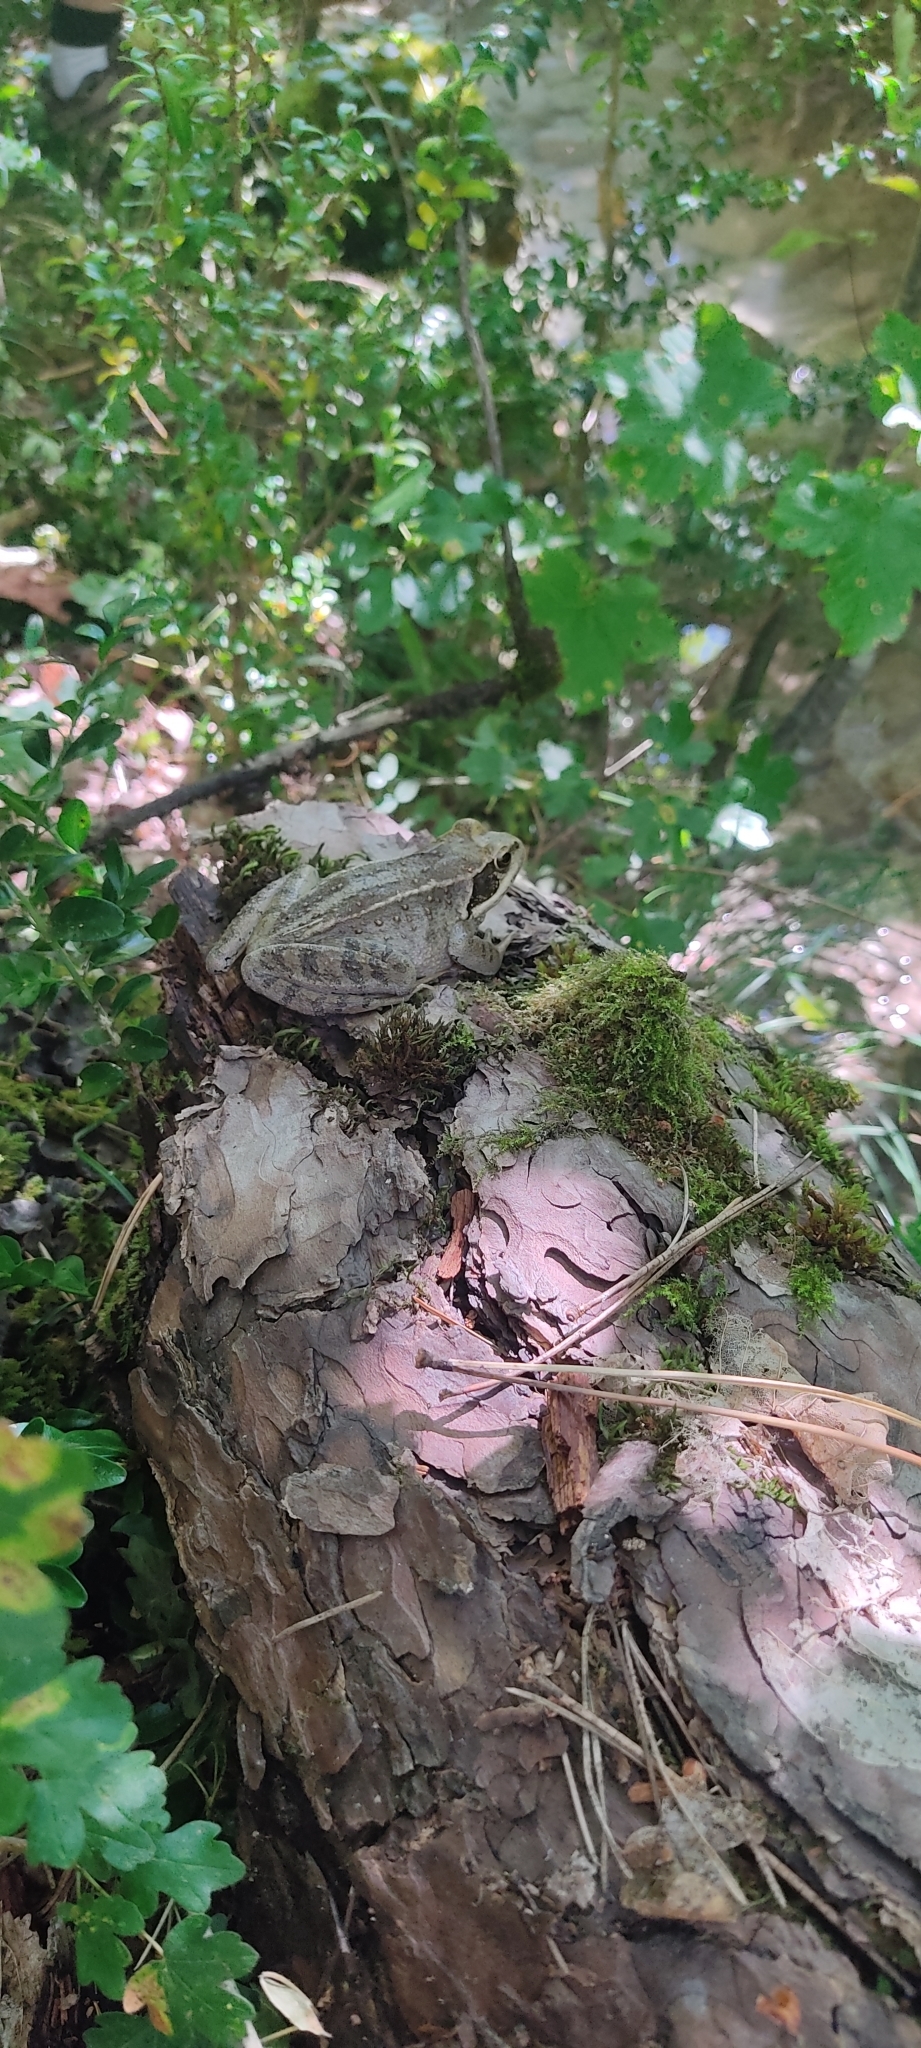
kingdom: Animalia
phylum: Chordata
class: Amphibia
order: Anura
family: Ranidae
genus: Rana
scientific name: Rana temporaria
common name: Common frog
